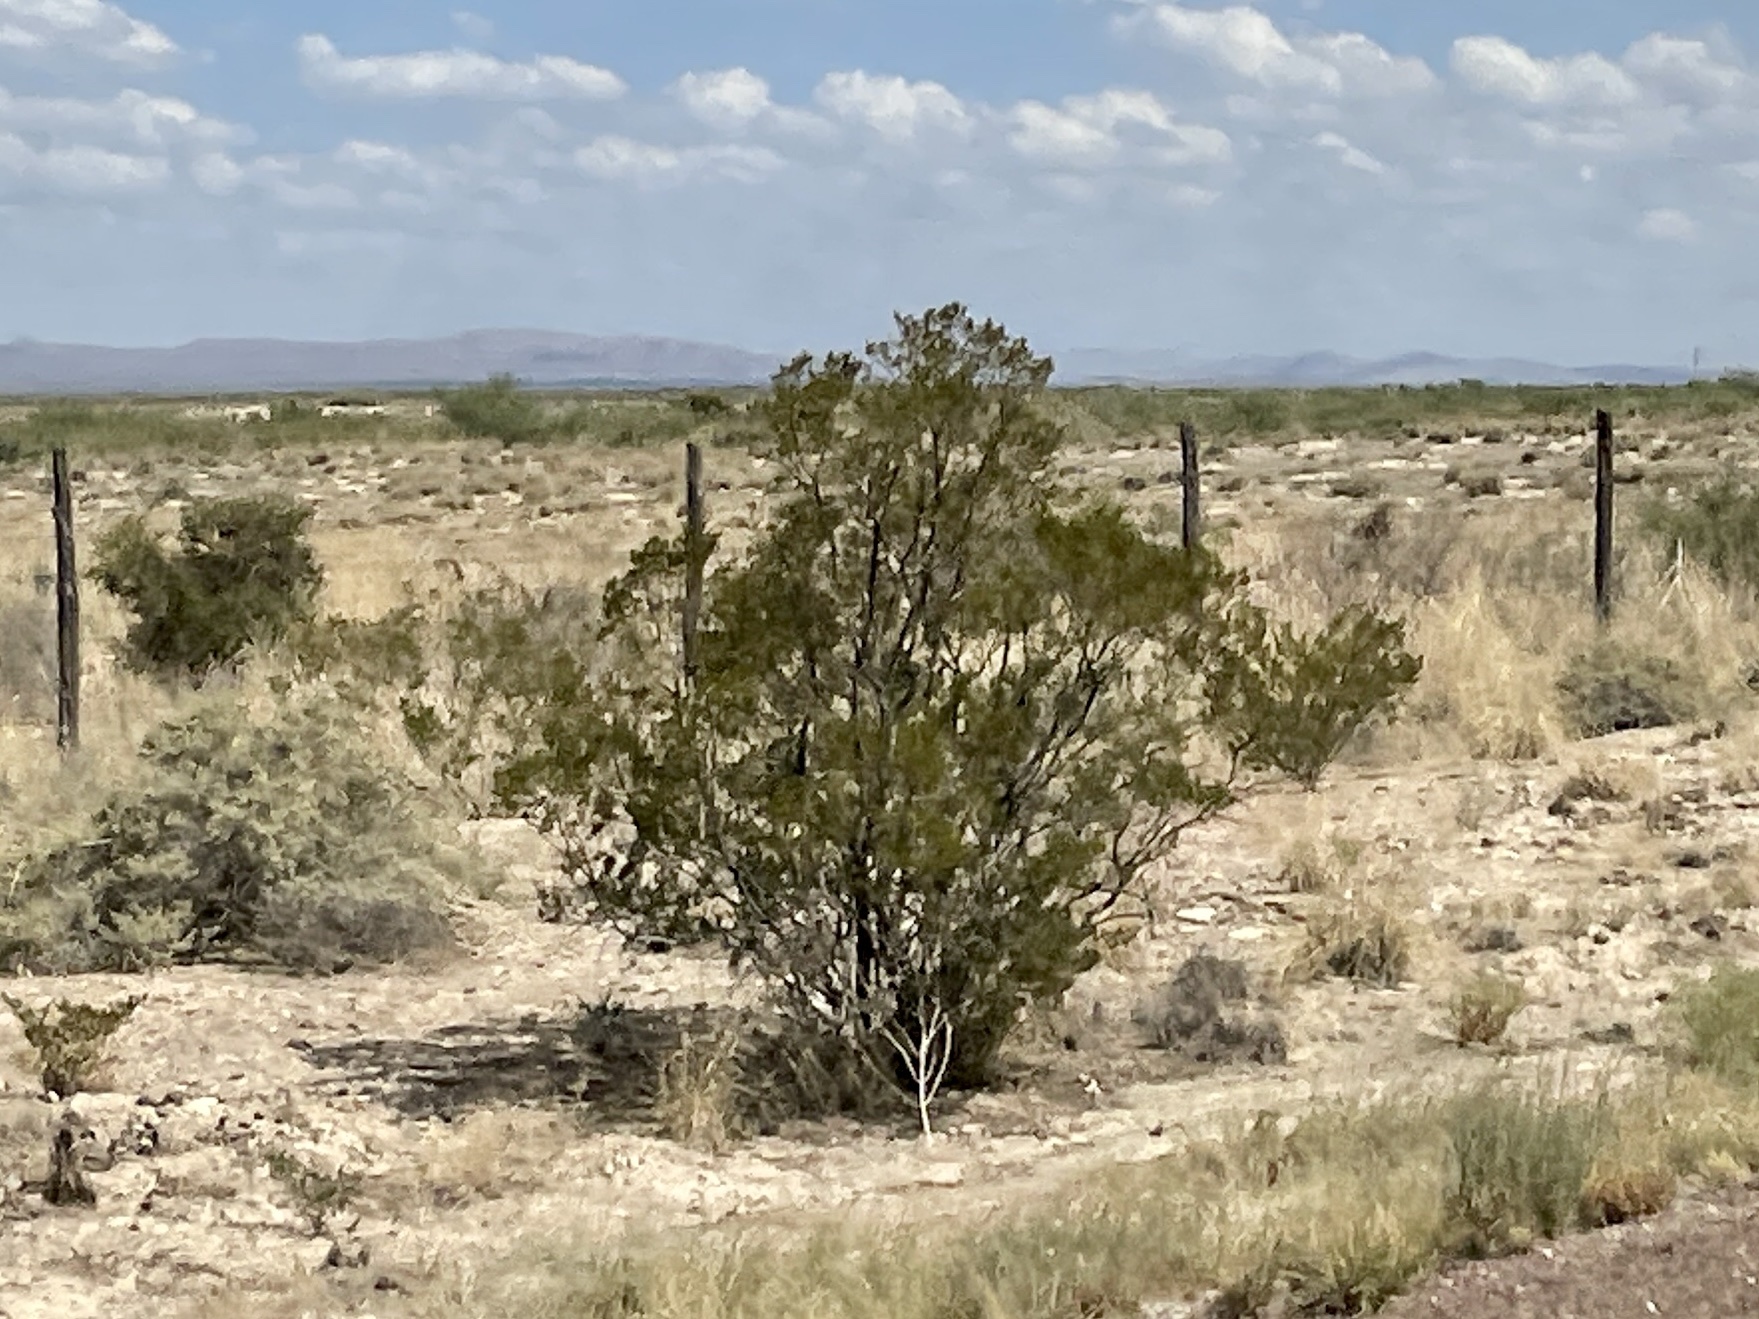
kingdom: Plantae
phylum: Tracheophyta
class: Magnoliopsida
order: Zygophyllales
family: Zygophyllaceae
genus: Larrea
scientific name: Larrea tridentata
